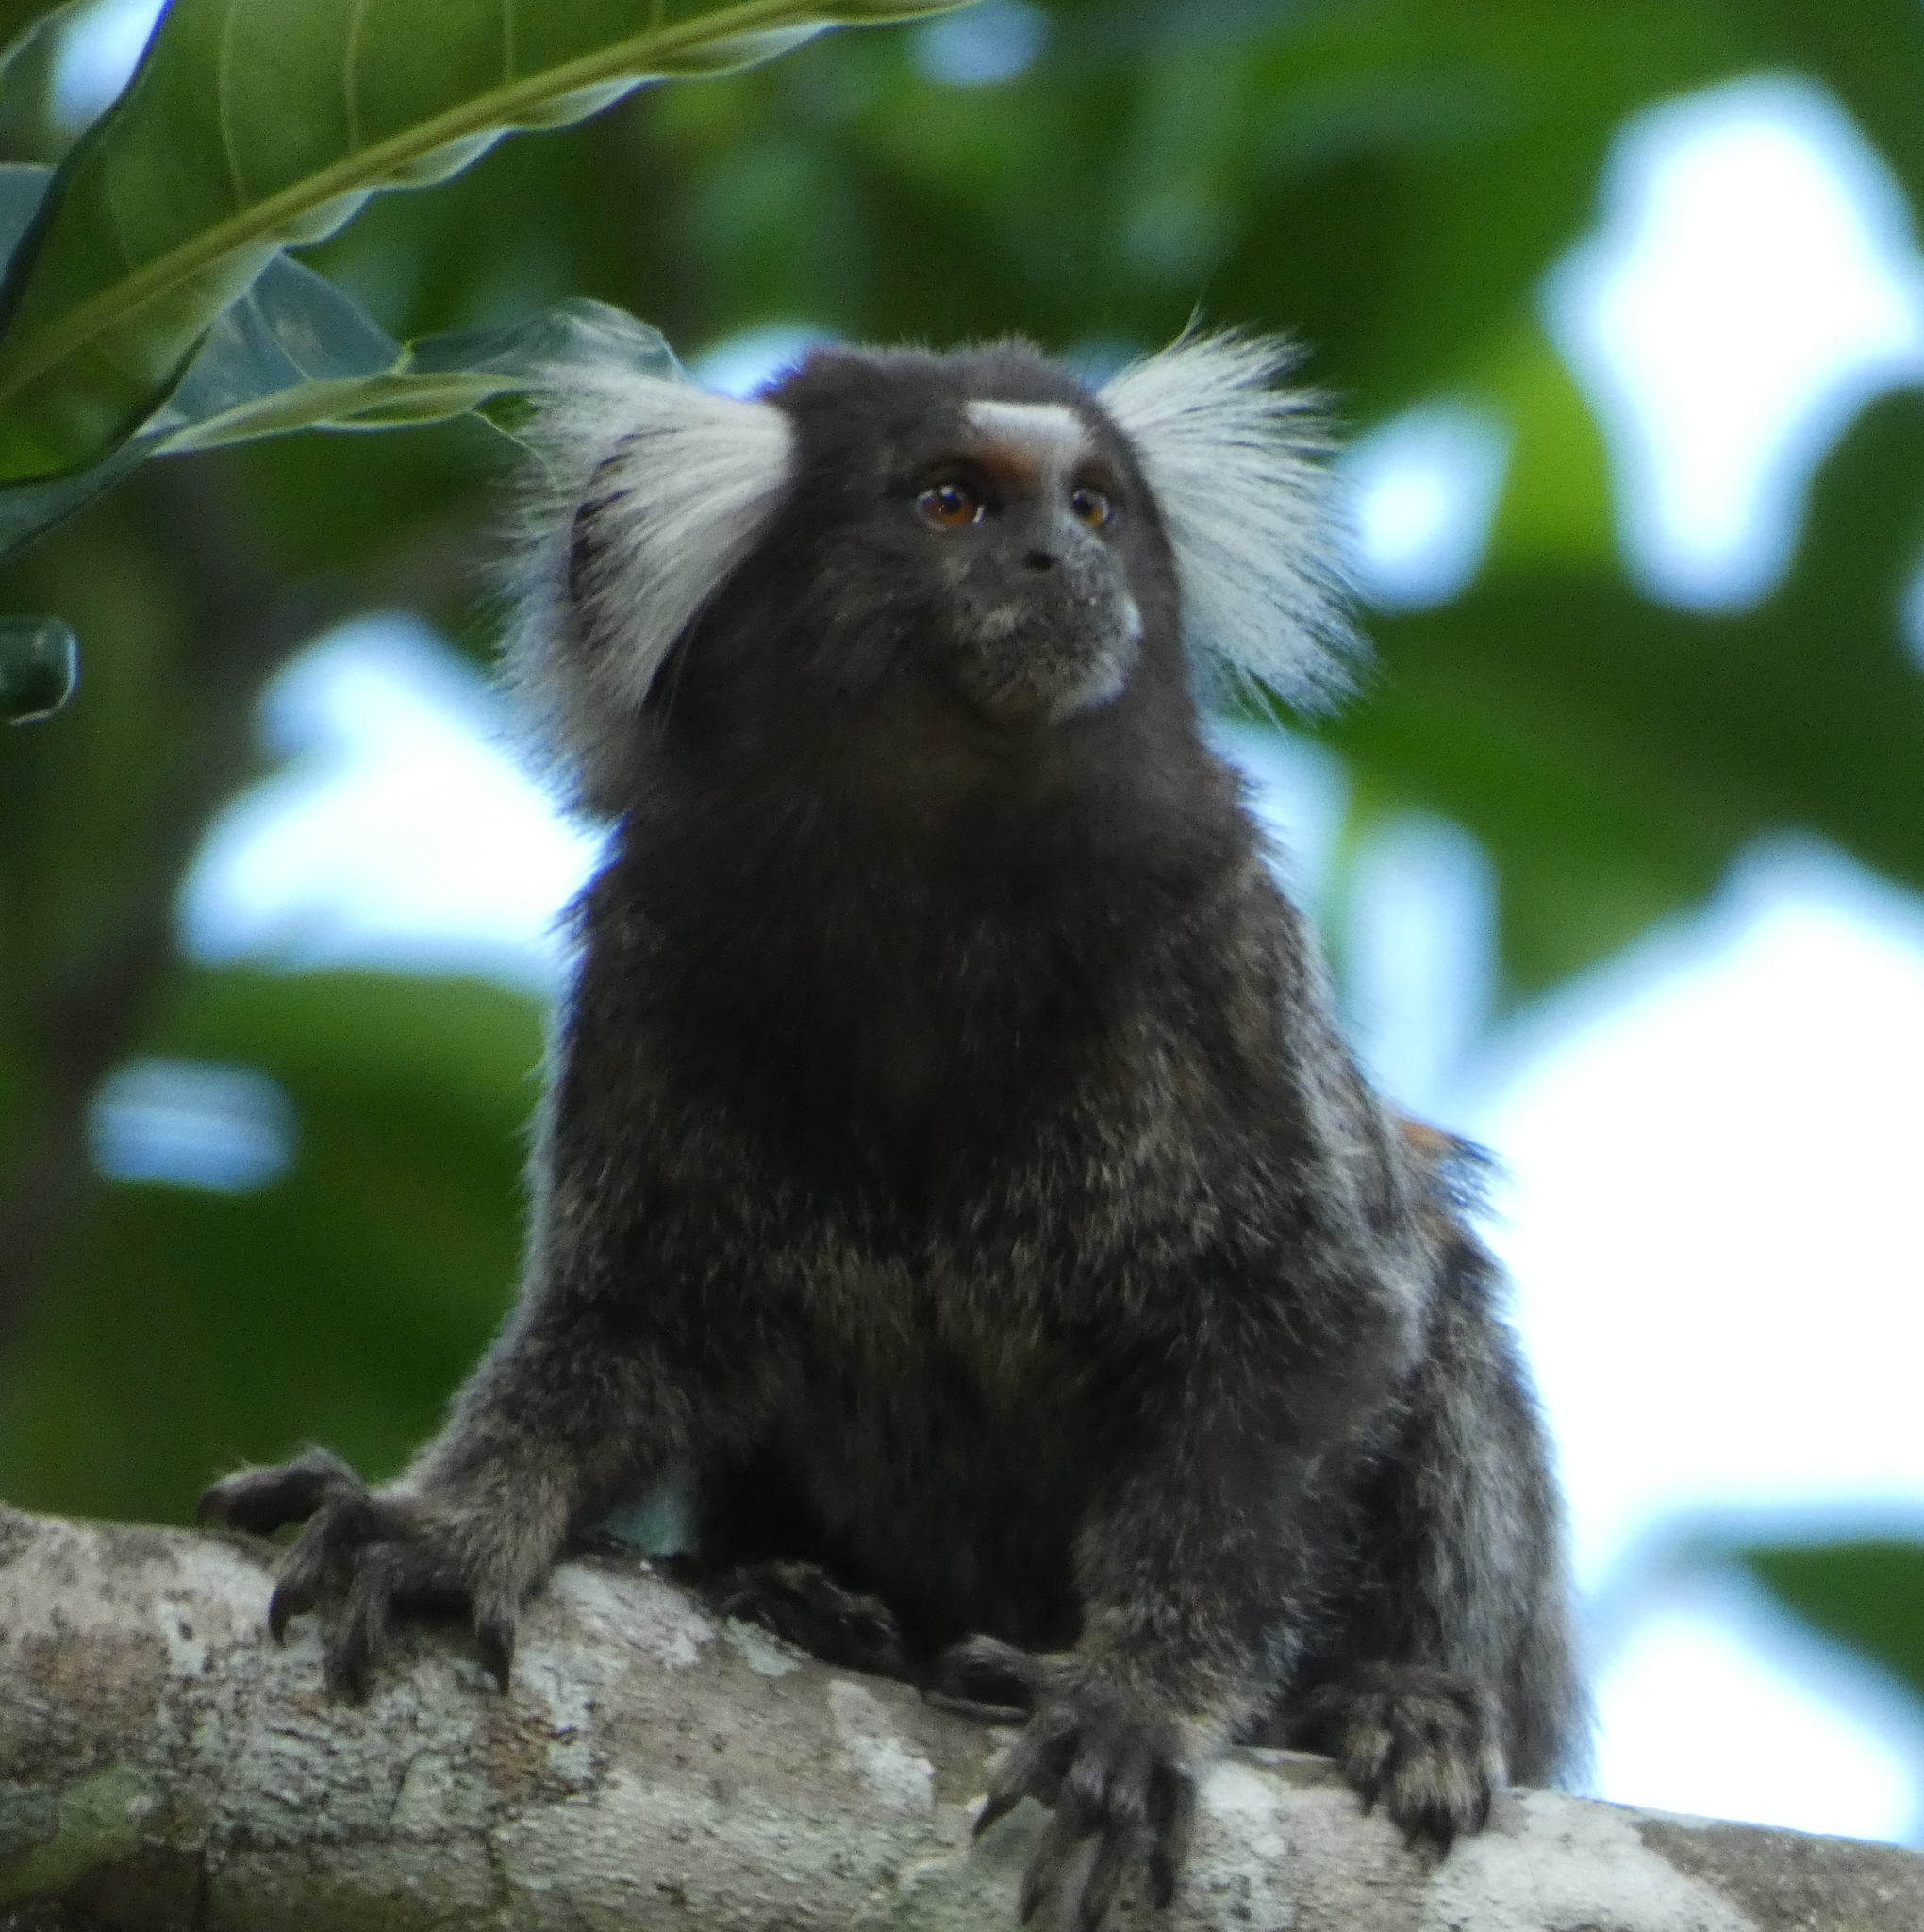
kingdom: Animalia
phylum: Chordata
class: Mammalia
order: Primates
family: Callitrichidae
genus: Callithrix
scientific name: Callithrix jacchus
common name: Common marmoset
